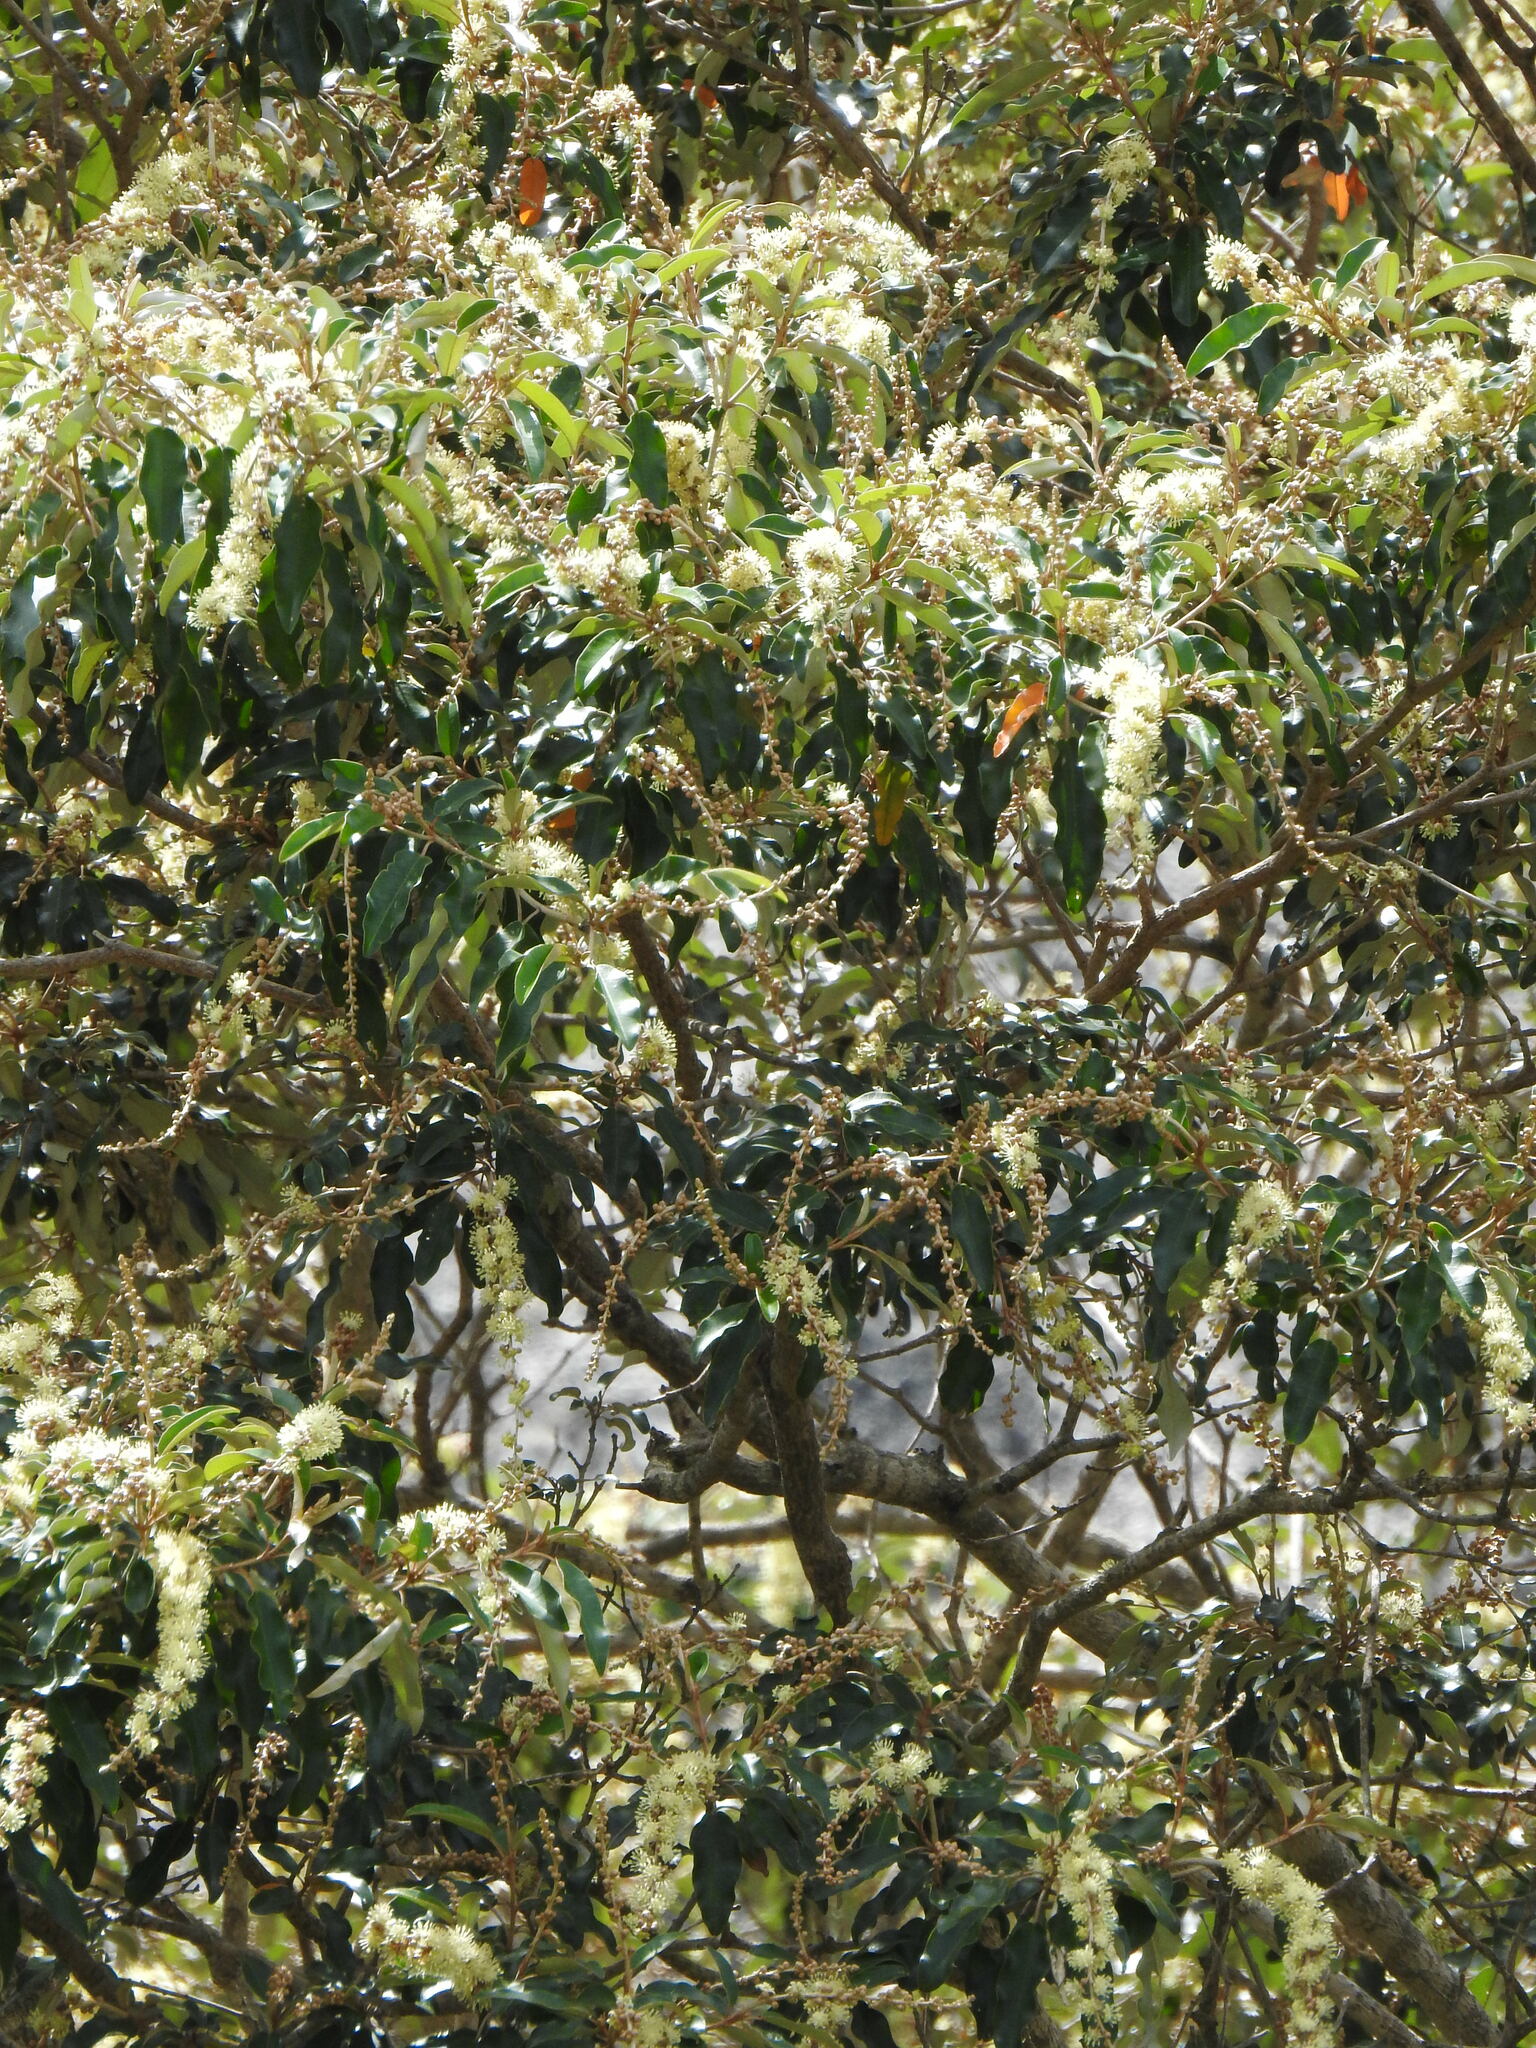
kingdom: Plantae
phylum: Tracheophyta
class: Magnoliopsida
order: Malpighiales
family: Euphorbiaceae
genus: Croton
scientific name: Croton gratissimus
